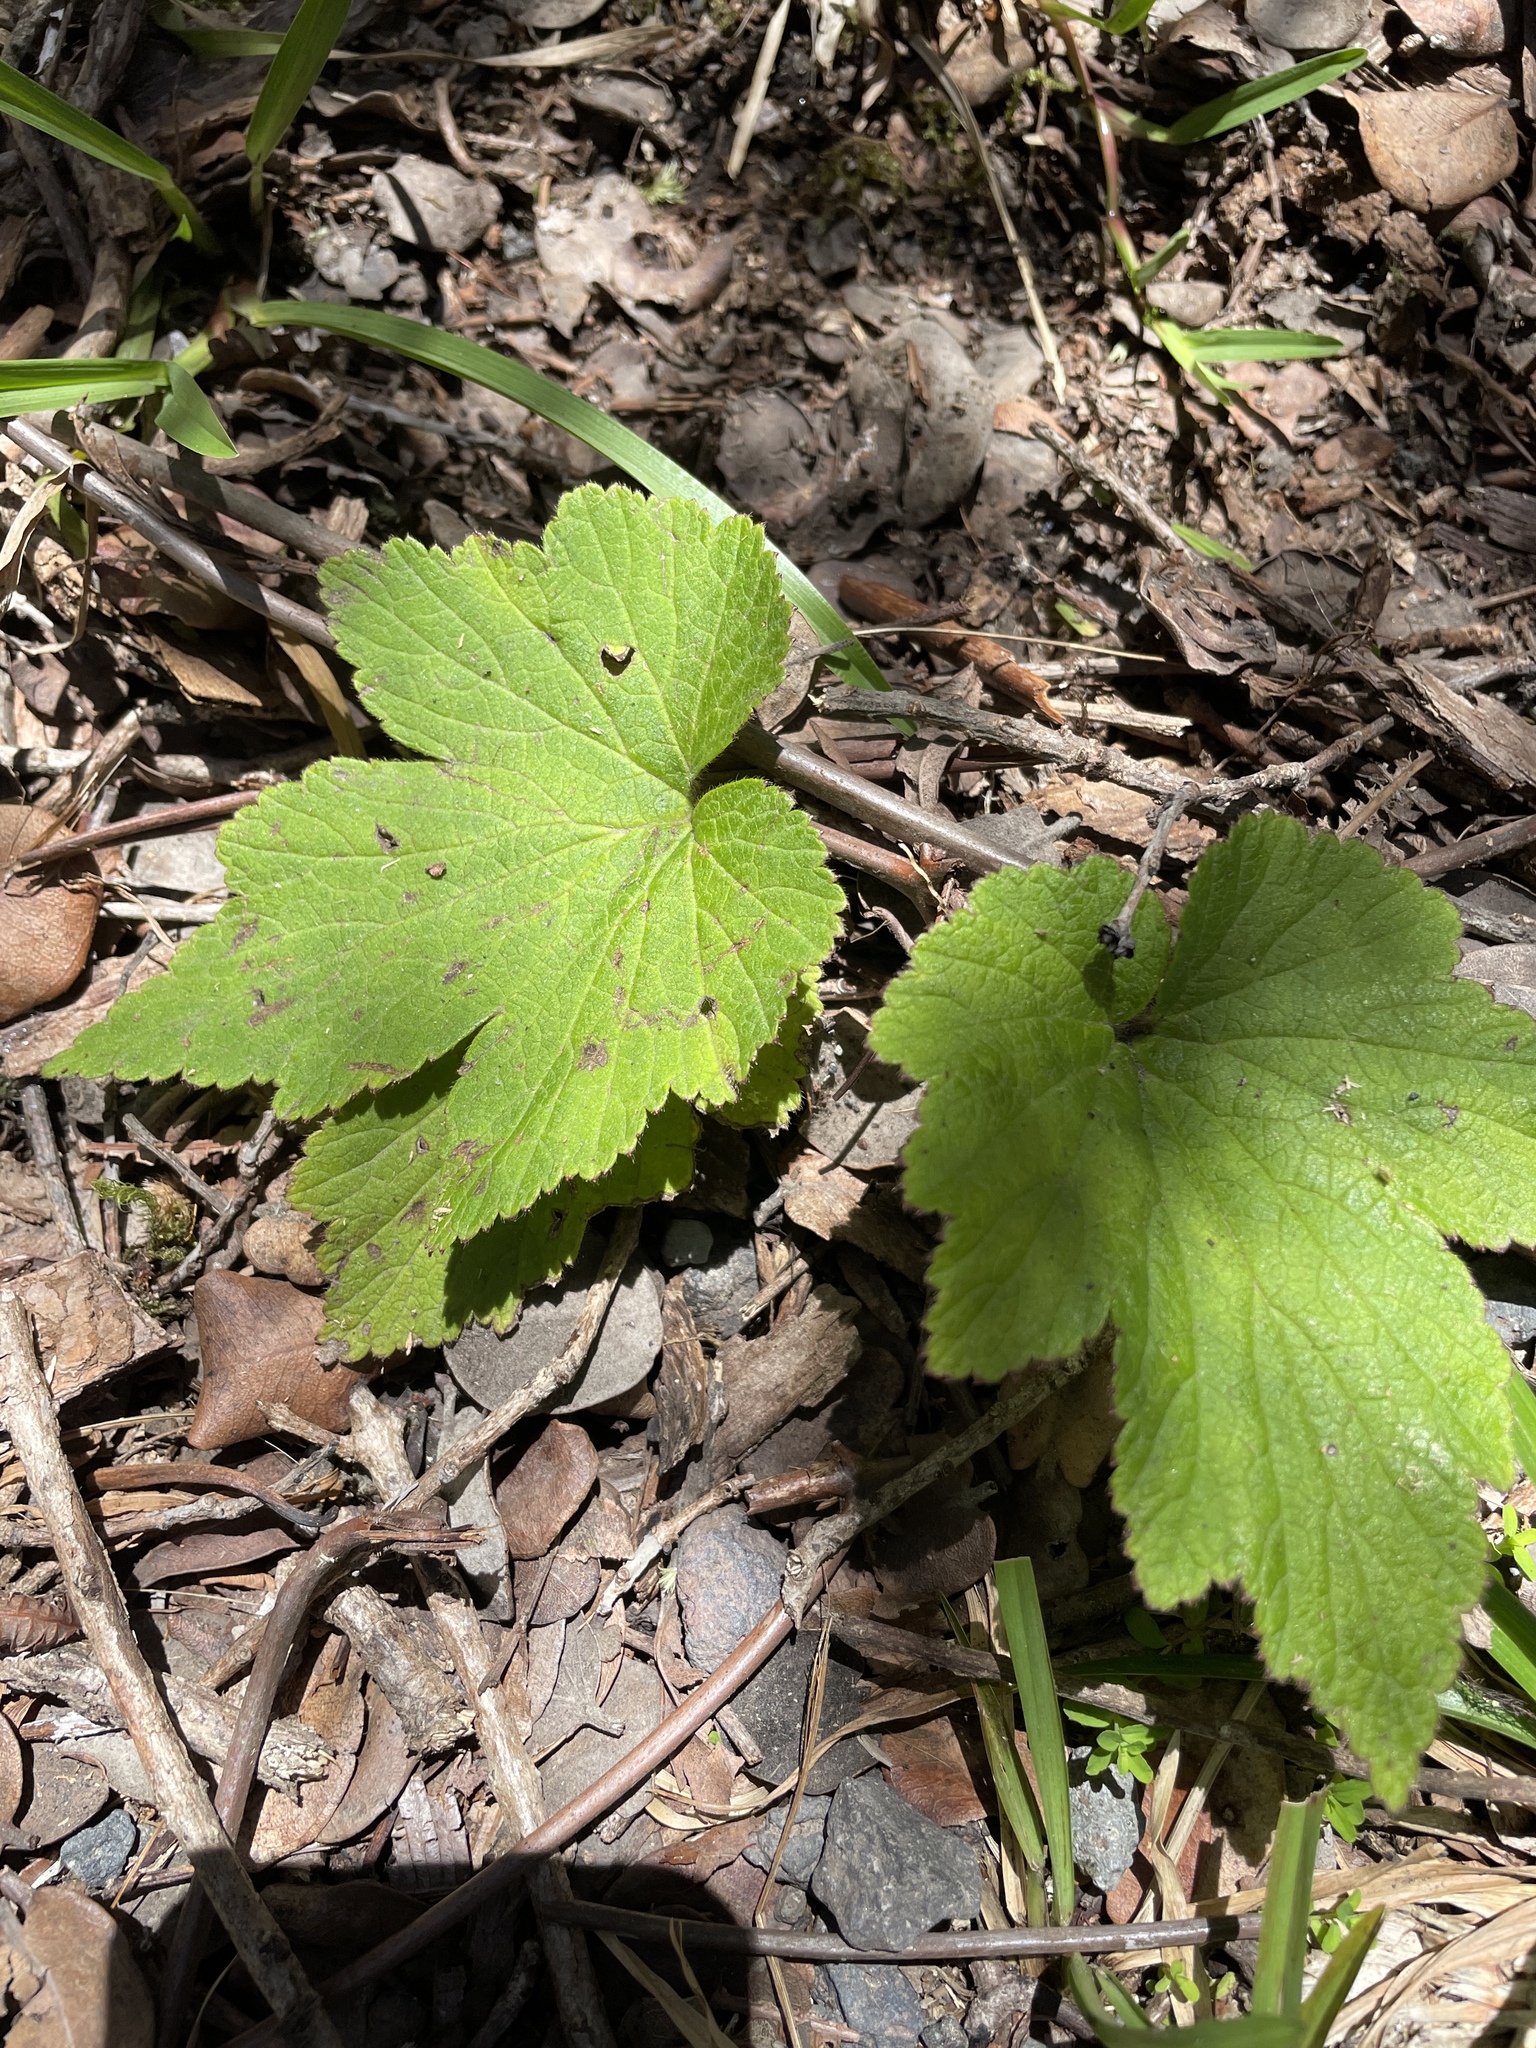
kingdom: Plantae
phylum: Tracheophyta
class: Magnoliopsida
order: Ranunculales
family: Ranunculaceae
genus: Eriocapitella
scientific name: Eriocapitella japonica
